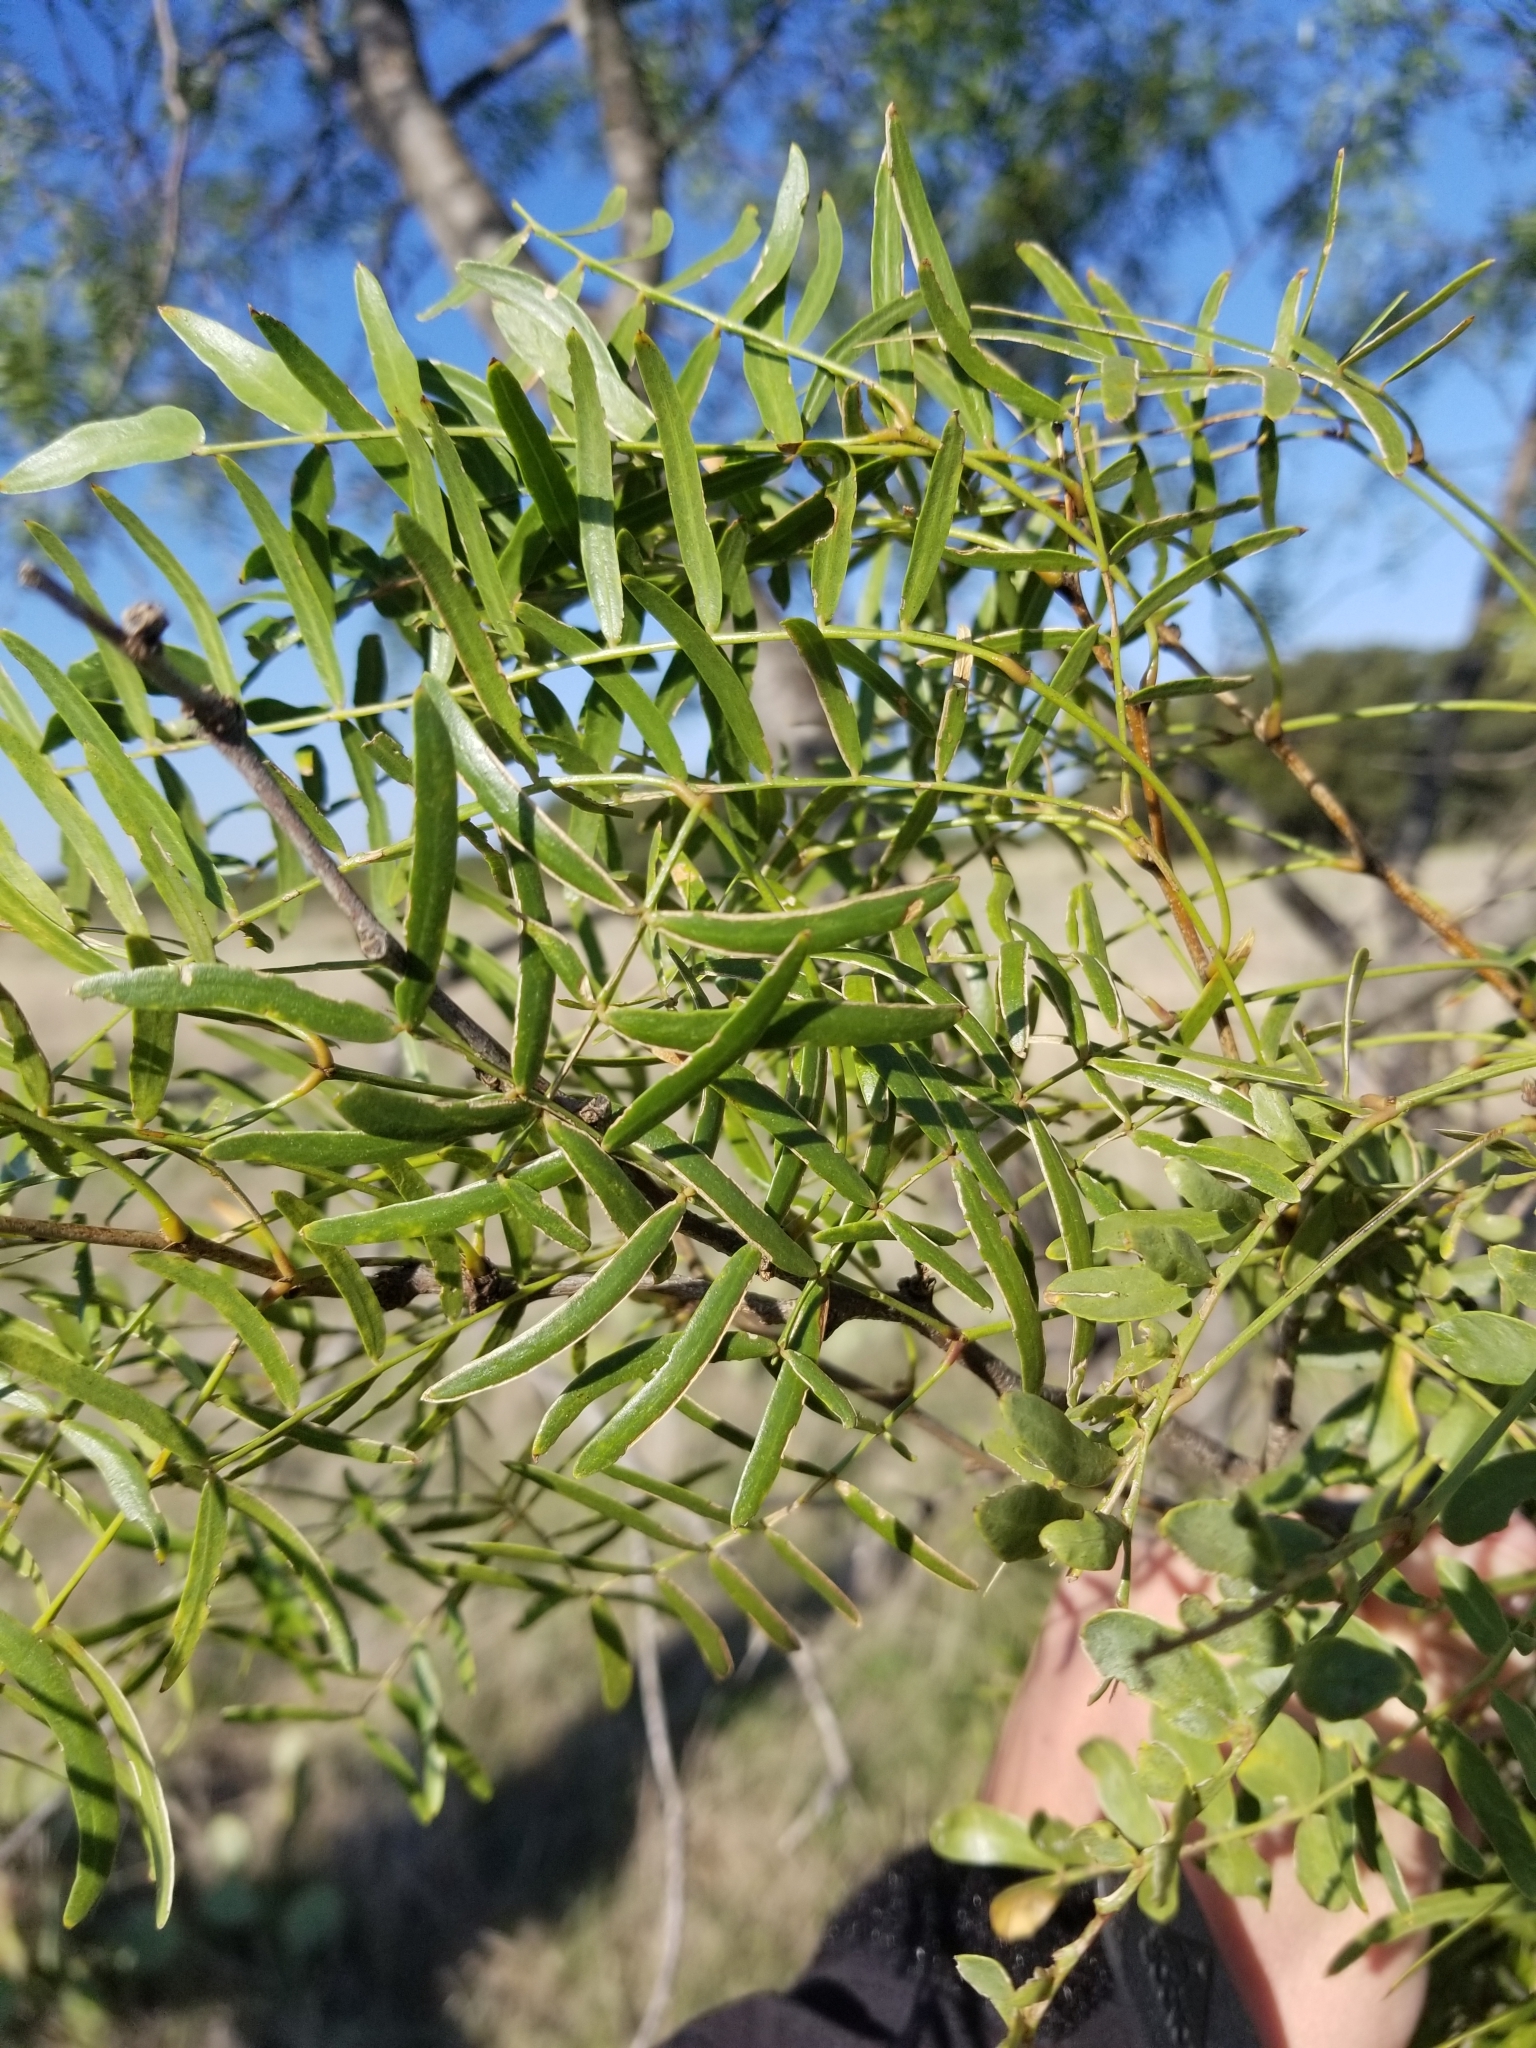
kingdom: Plantae
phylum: Tracheophyta
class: Magnoliopsida
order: Fabales
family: Fabaceae
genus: Prosopis
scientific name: Prosopis glandulosa
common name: Honey mesquite
